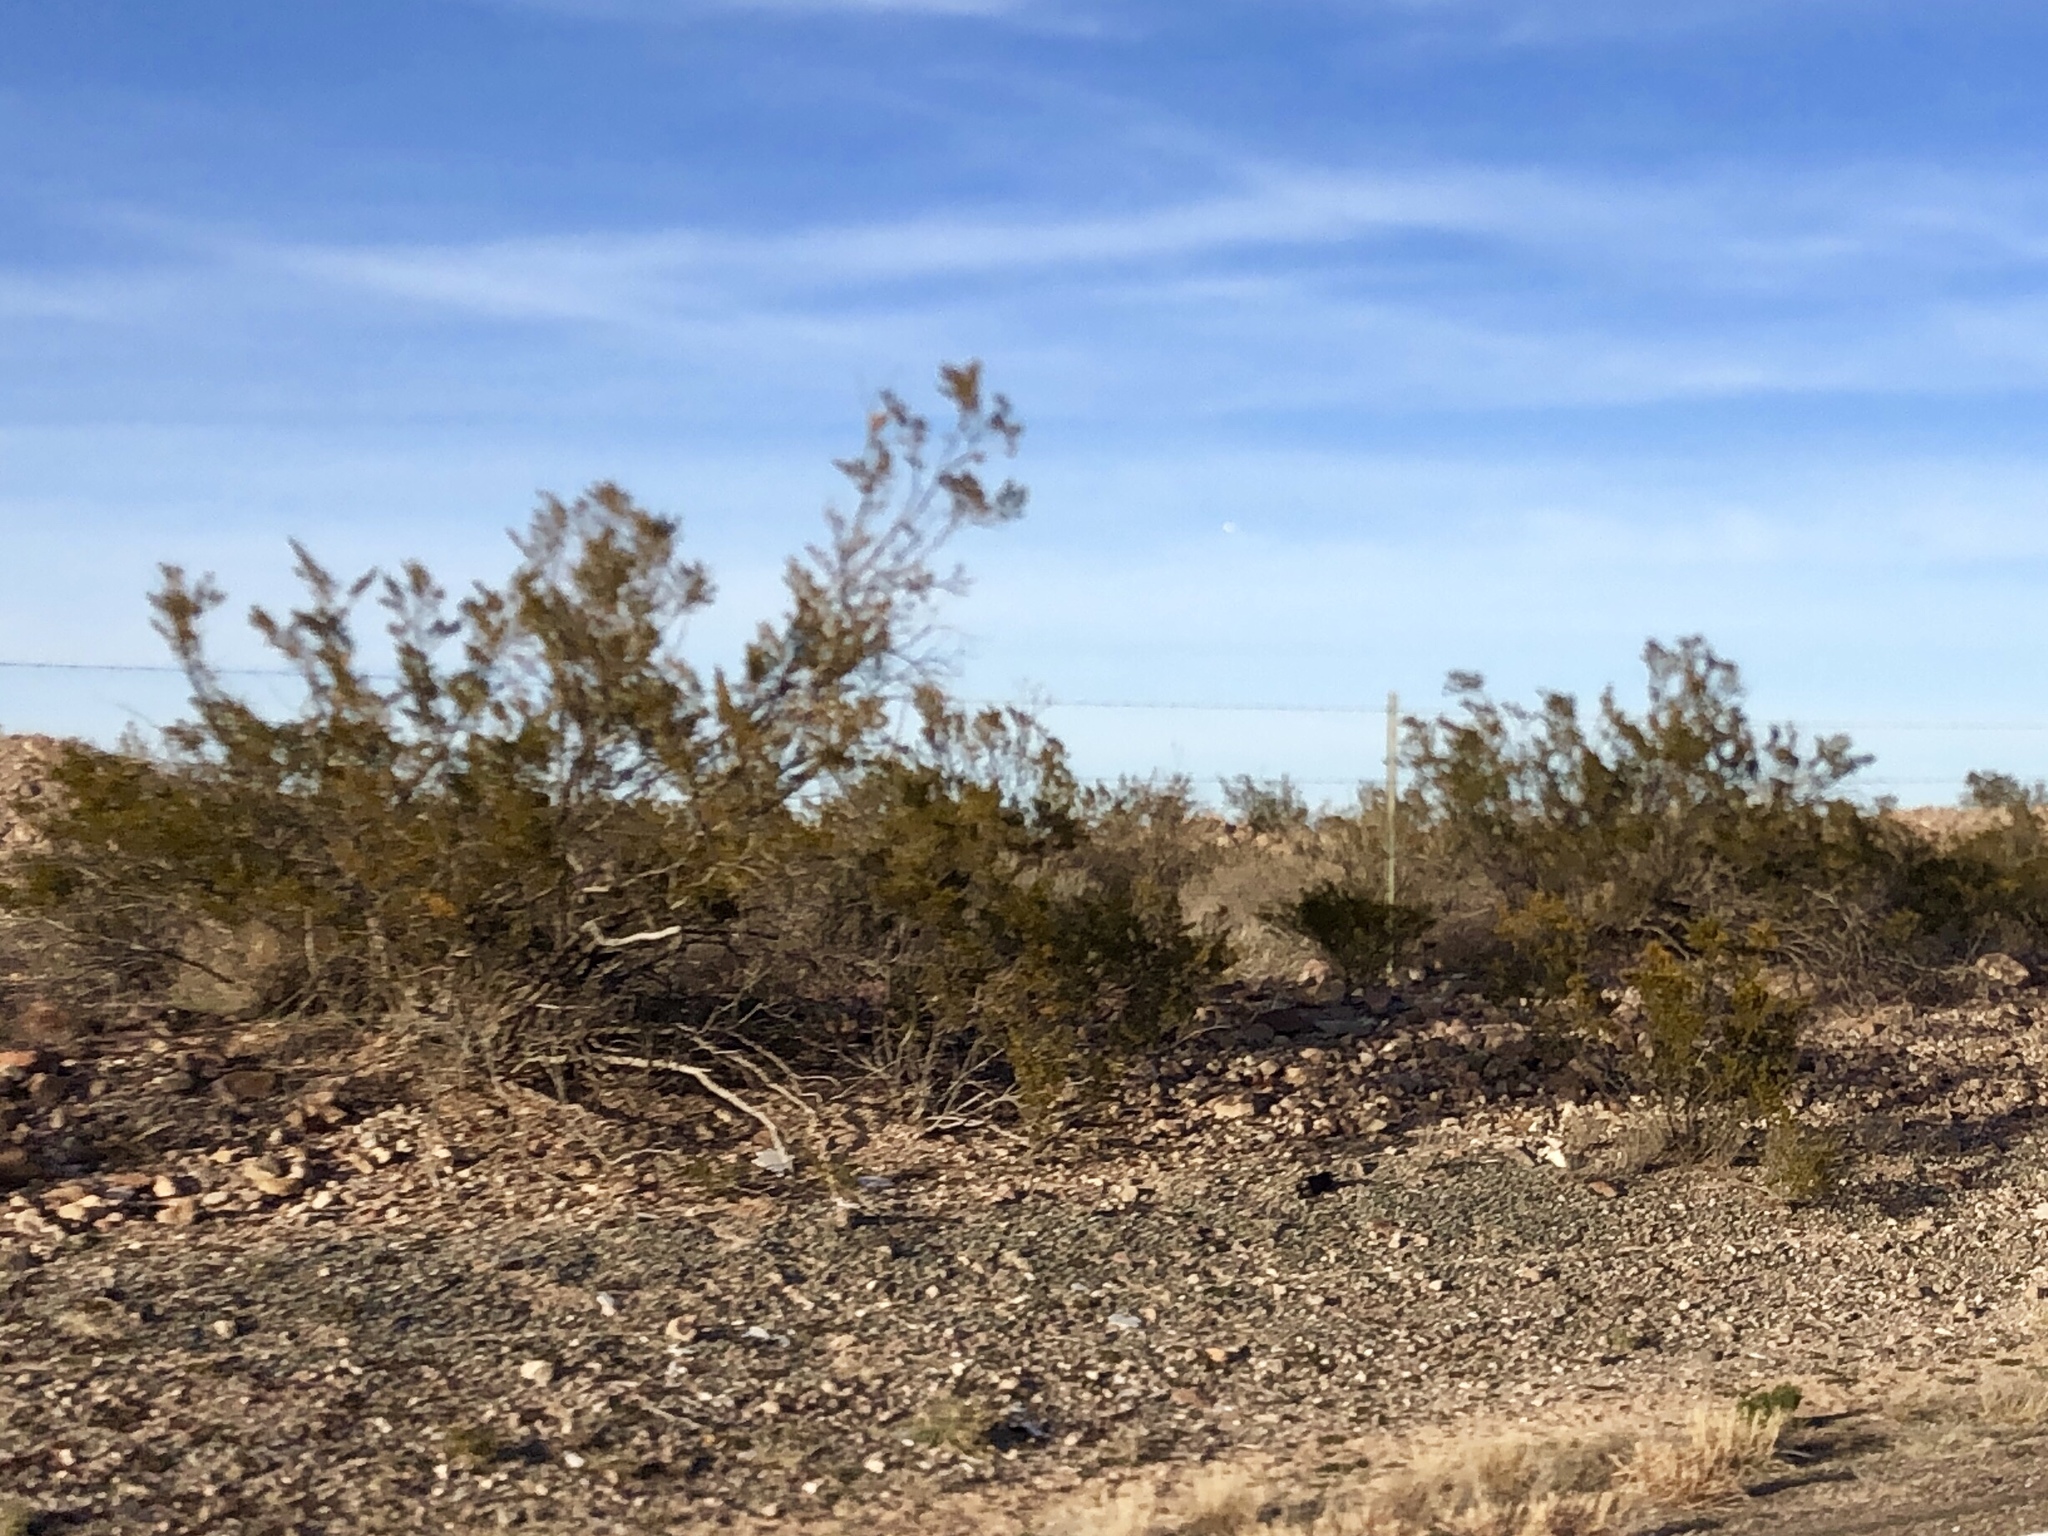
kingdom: Plantae
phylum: Tracheophyta
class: Magnoliopsida
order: Zygophyllales
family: Zygophyllaceae
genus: Larrea
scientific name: Larrea tridentata
